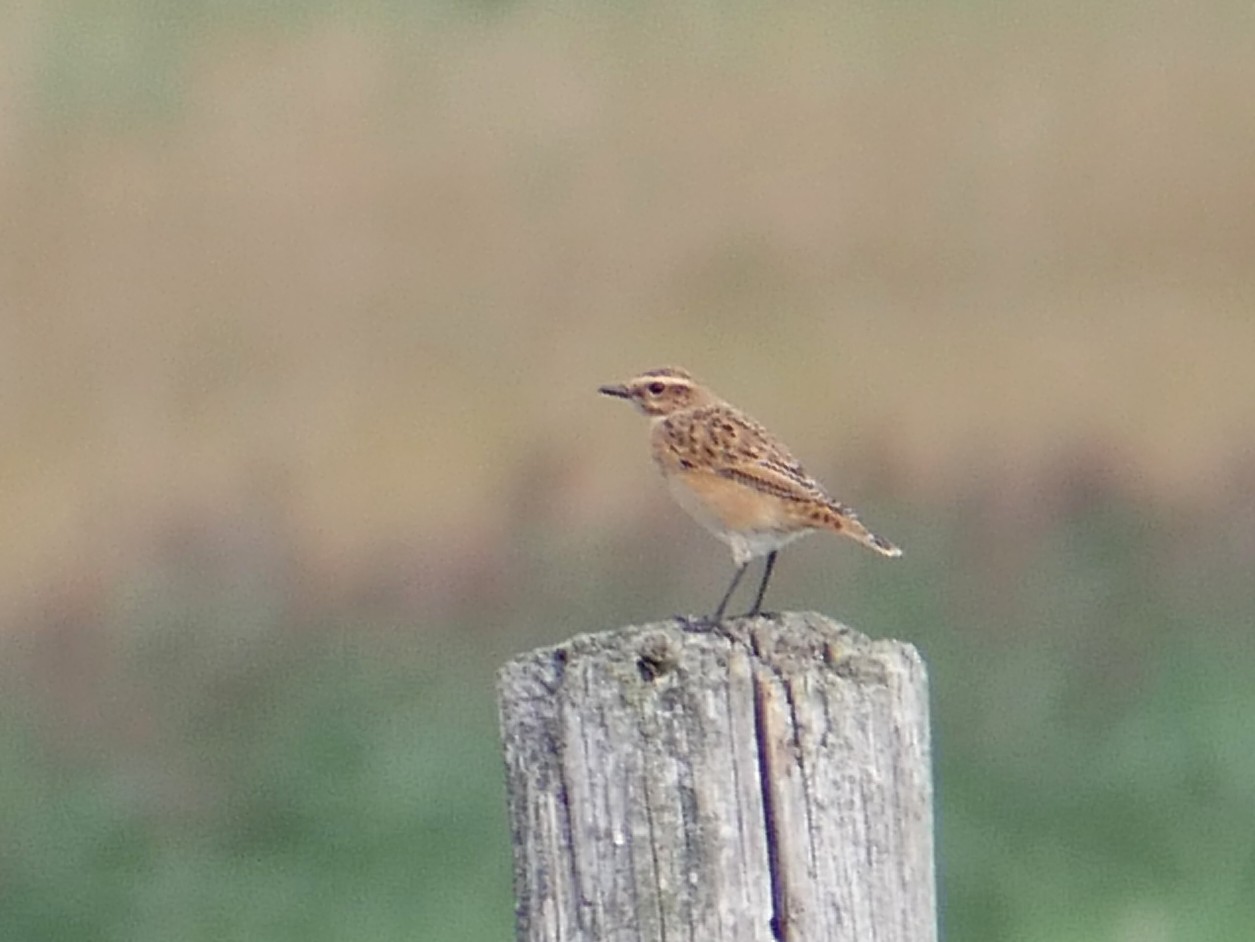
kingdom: Animalia
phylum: Chordata
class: Aves
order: Passeriformes
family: Muscicapidae
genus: Saxicola
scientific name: Saxicola rubetra
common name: Whinchat
